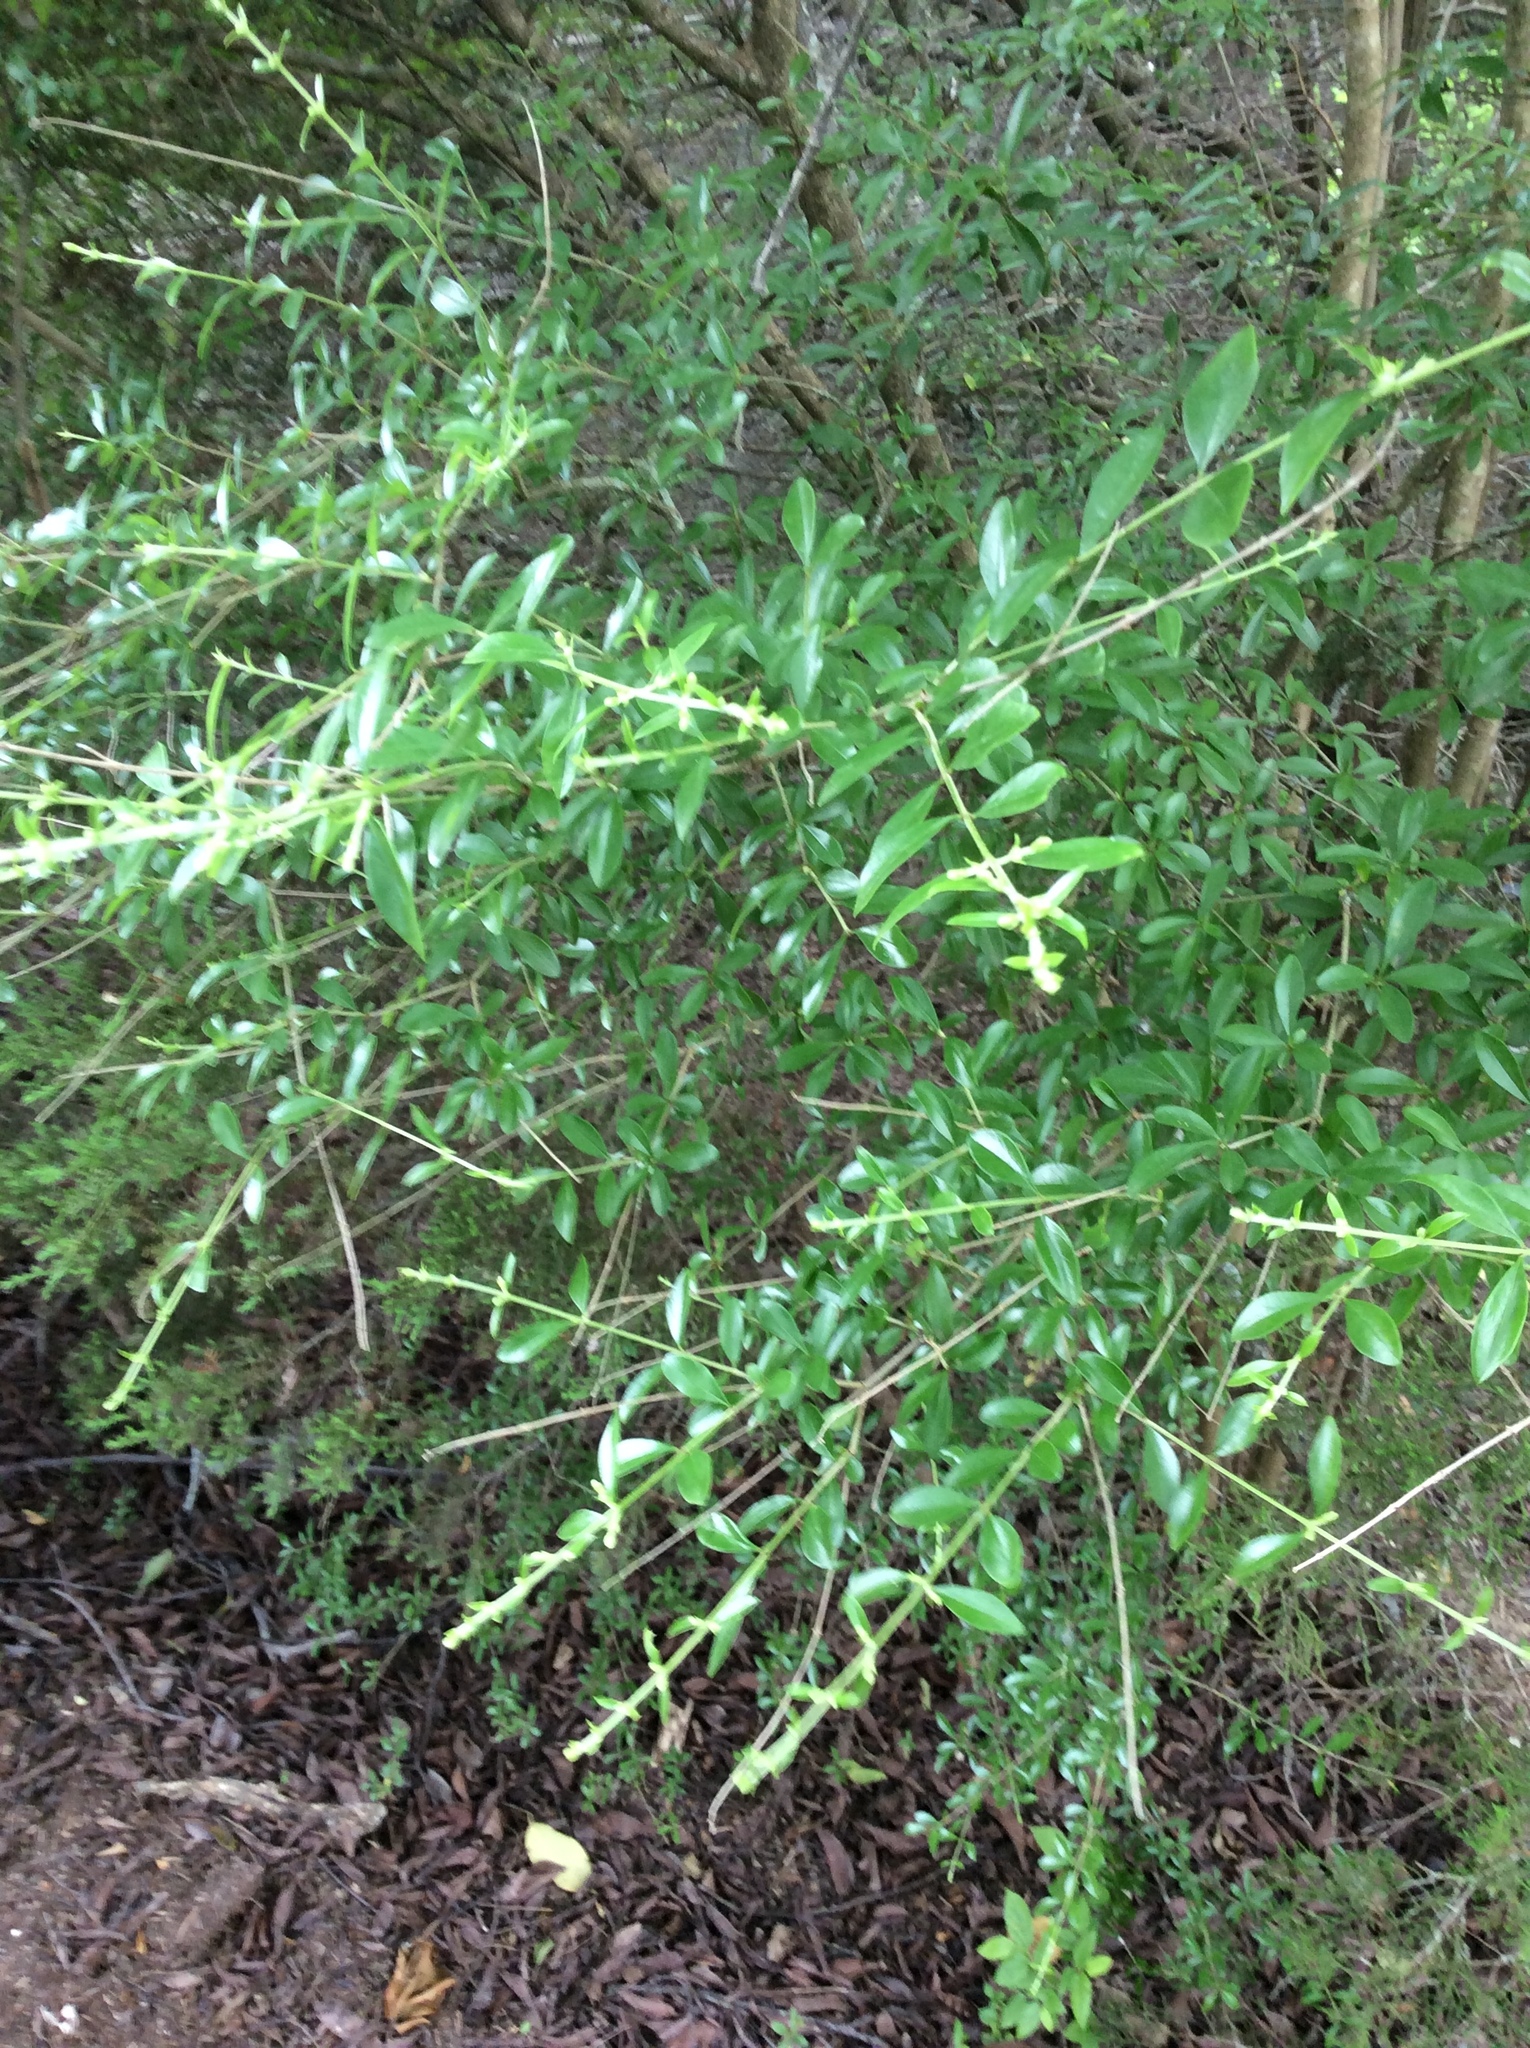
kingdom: Plantae
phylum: Tracheophyta
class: Magnoliopsida
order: Lamiales
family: Oleaceae
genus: Ligustrum
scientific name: Ligustrum quihoui
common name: Waxyleaf privet
